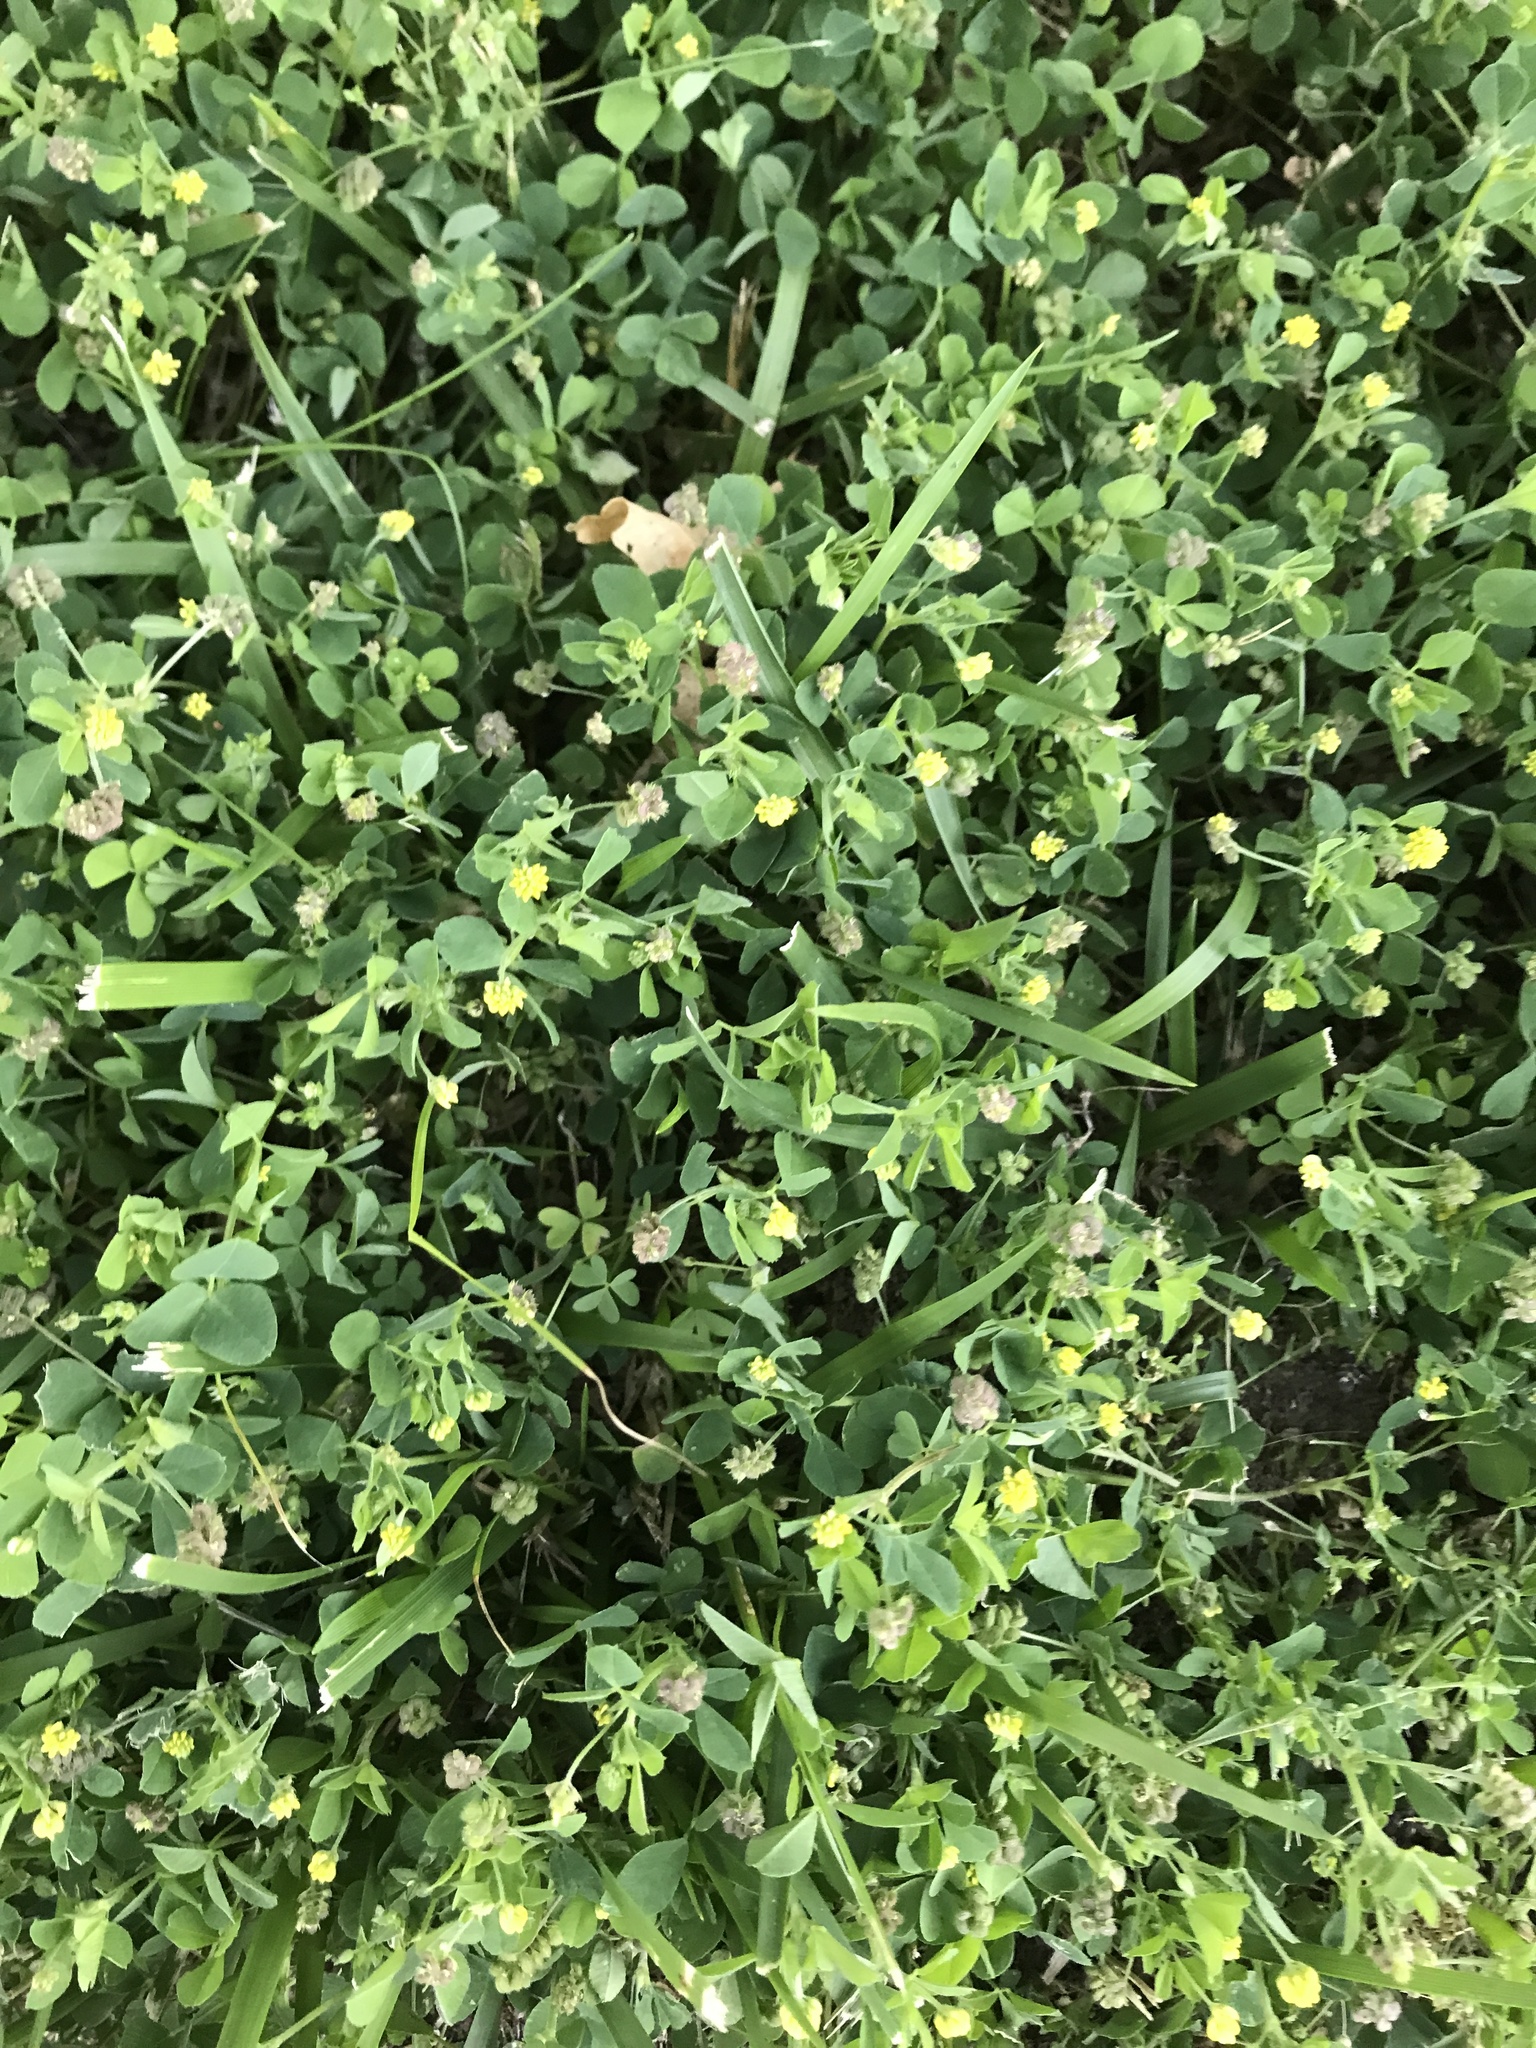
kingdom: Plantae
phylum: Tracheophyta
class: Magnoliopsida
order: Fabales
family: Fabaceae
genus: Medicago
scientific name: Medicago lupulina
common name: Black medick
